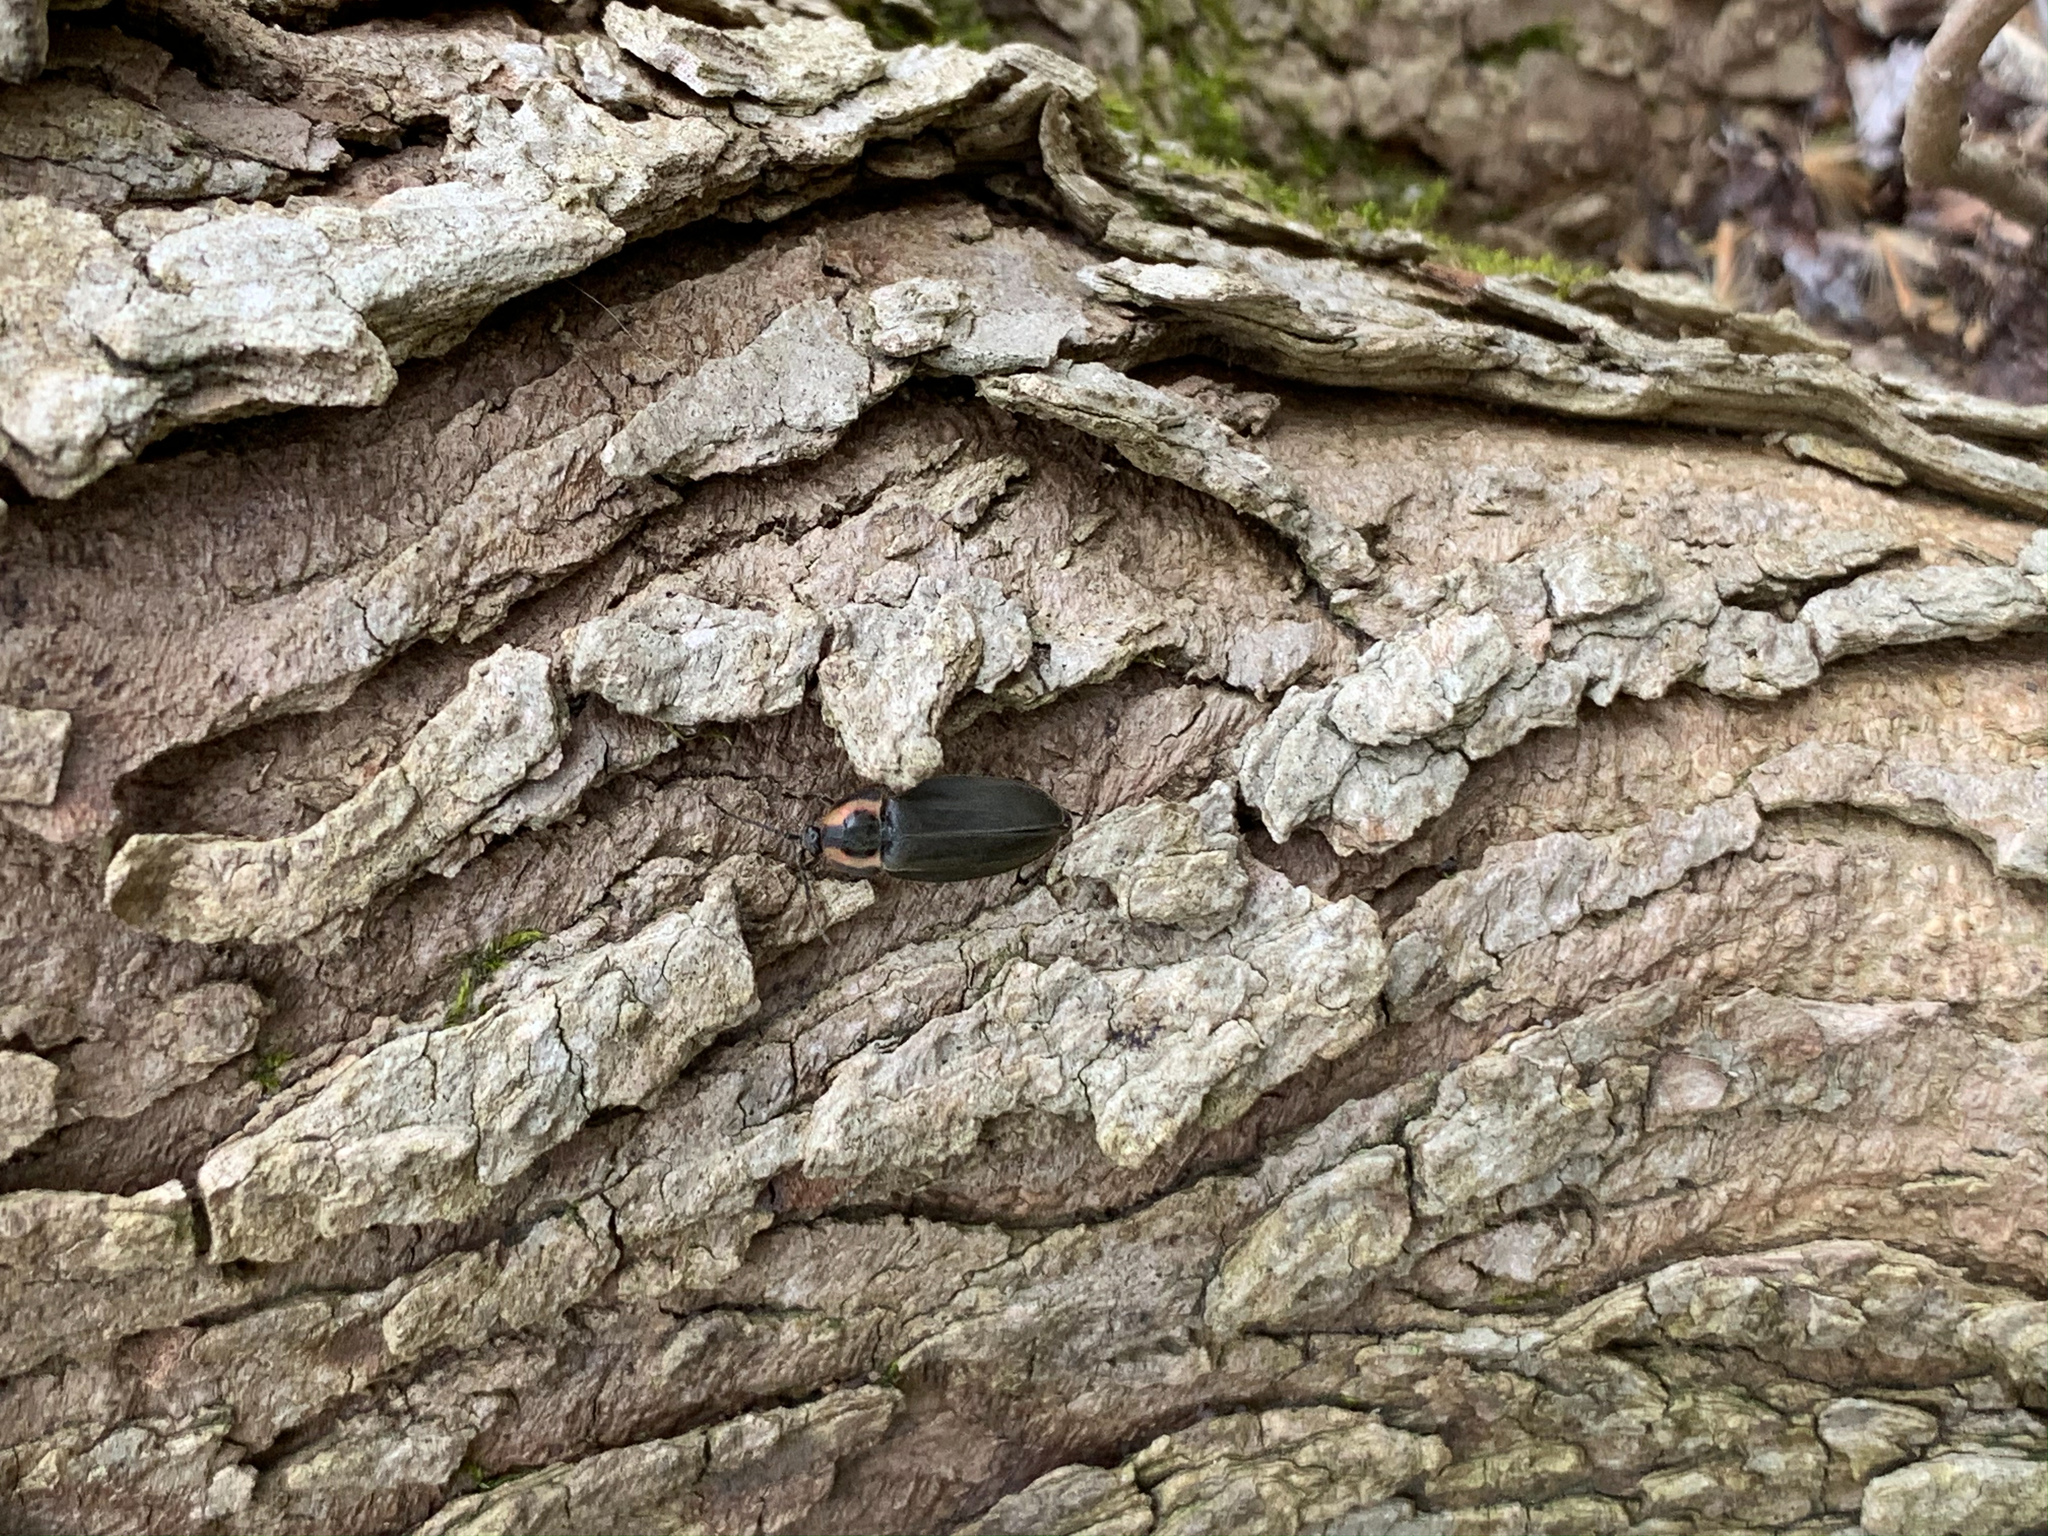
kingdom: Animalia
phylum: Arthropoda
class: Insecta
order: Coleoptera
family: Lampyridae
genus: Photinus
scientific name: Photinus corrusca
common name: Winter firefly
